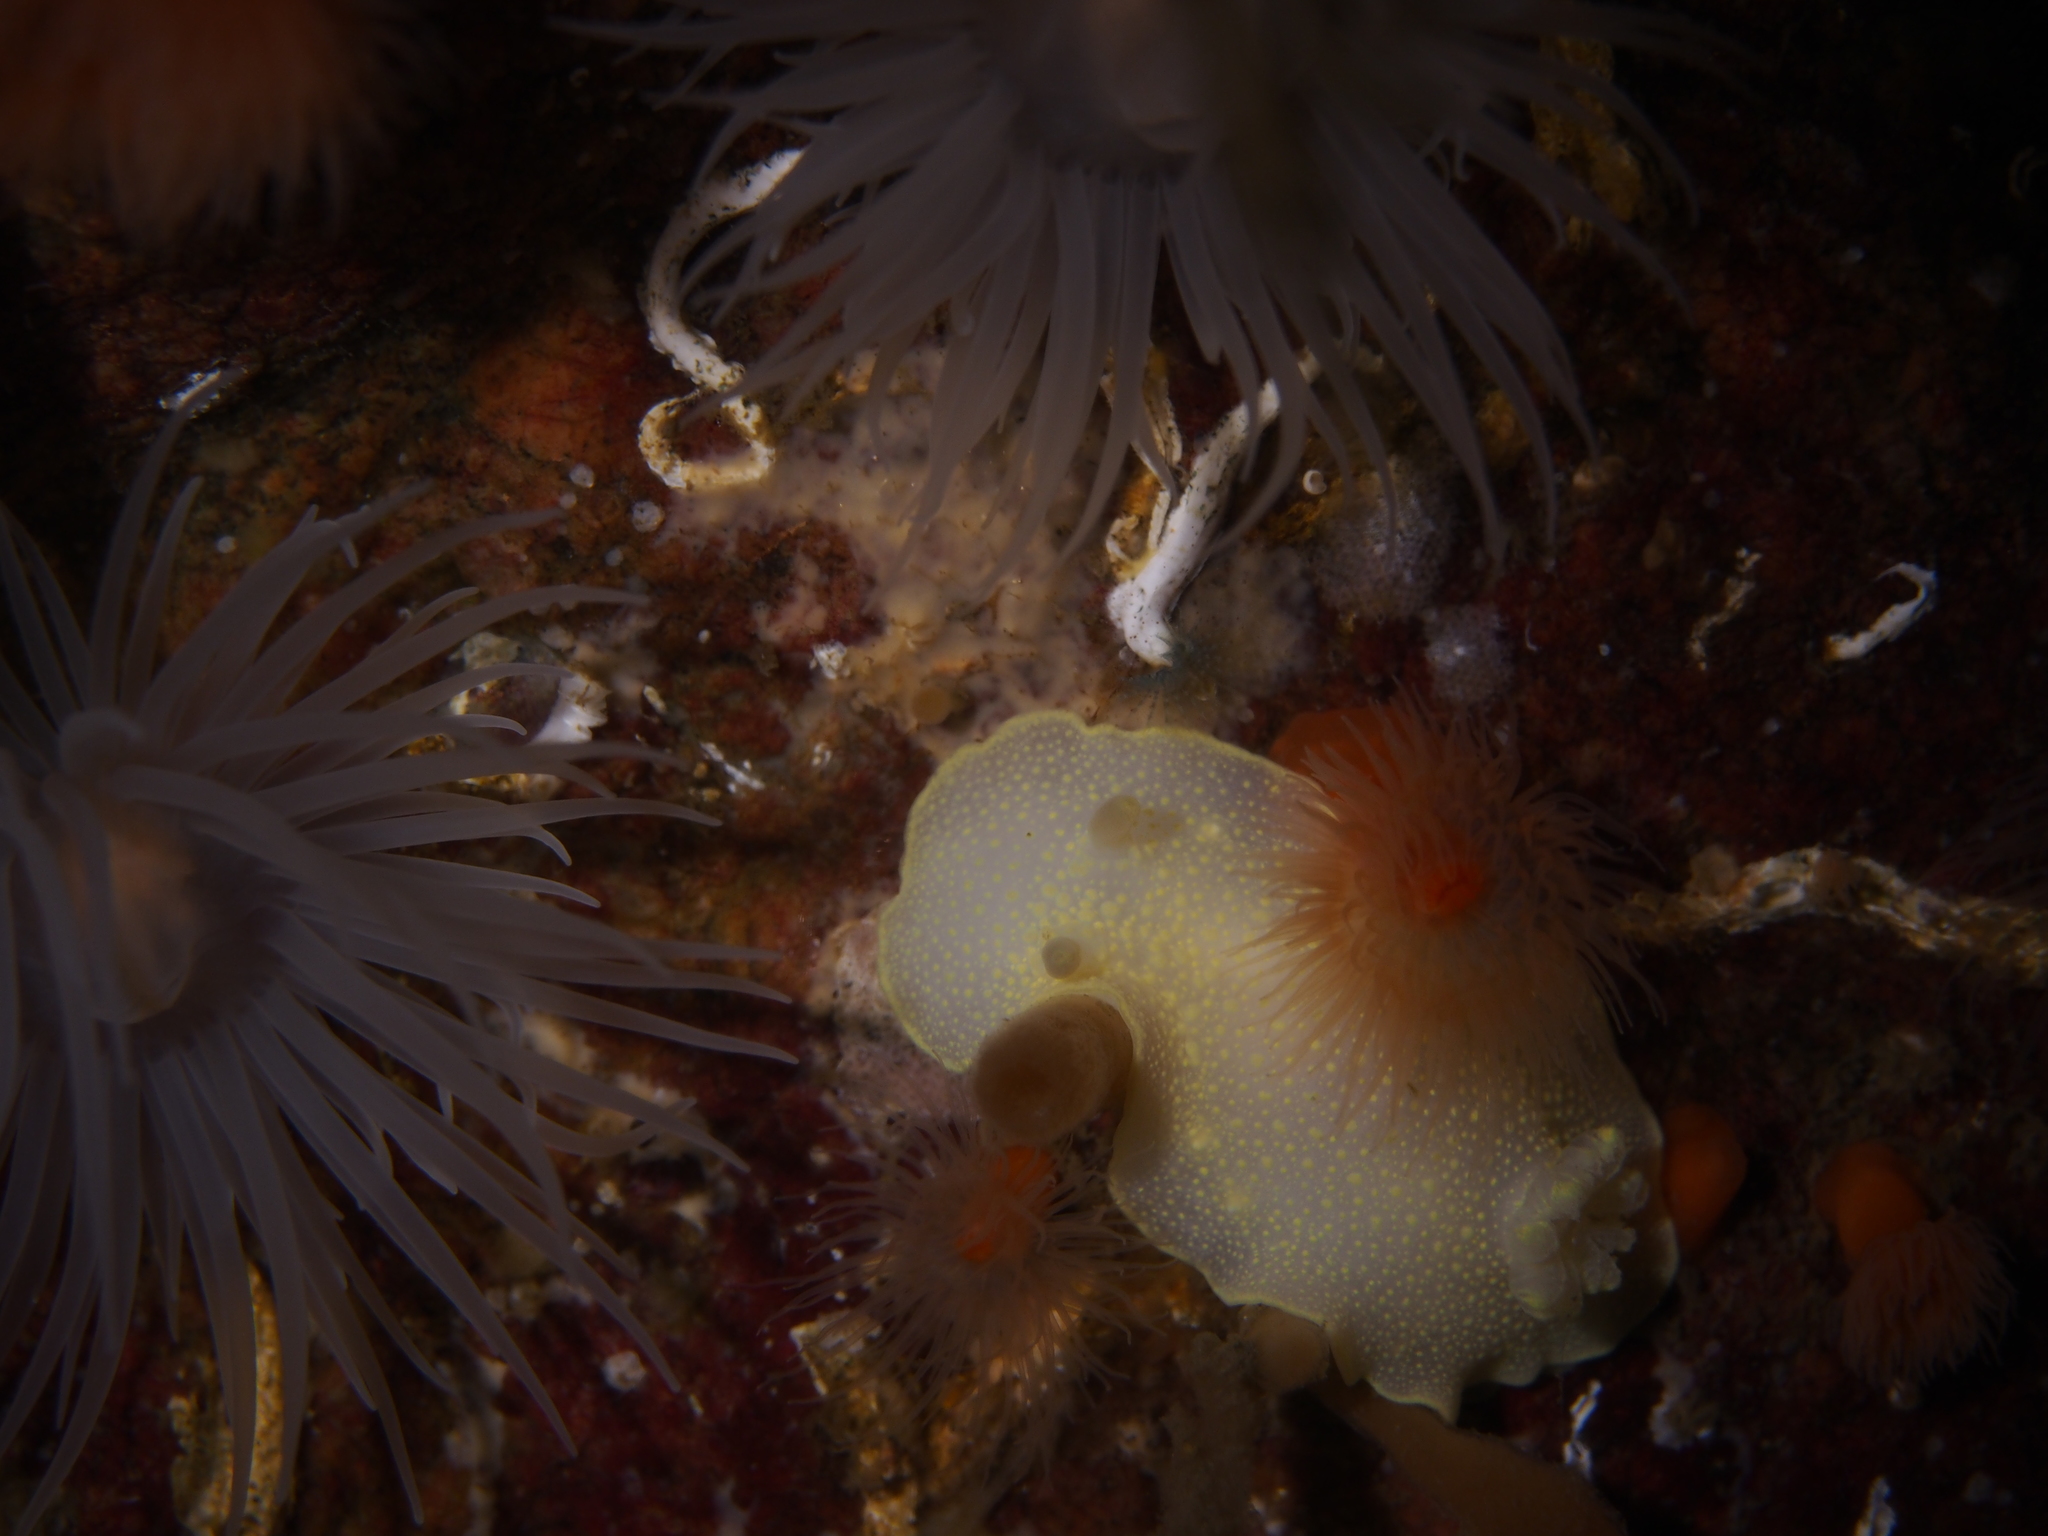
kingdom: Animalia
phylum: Mollusca
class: Gastropoda
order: Nudibranchia
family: Cadlinidae
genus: Cadlina
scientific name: Cadlina laevis
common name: White atlantic cadlina
